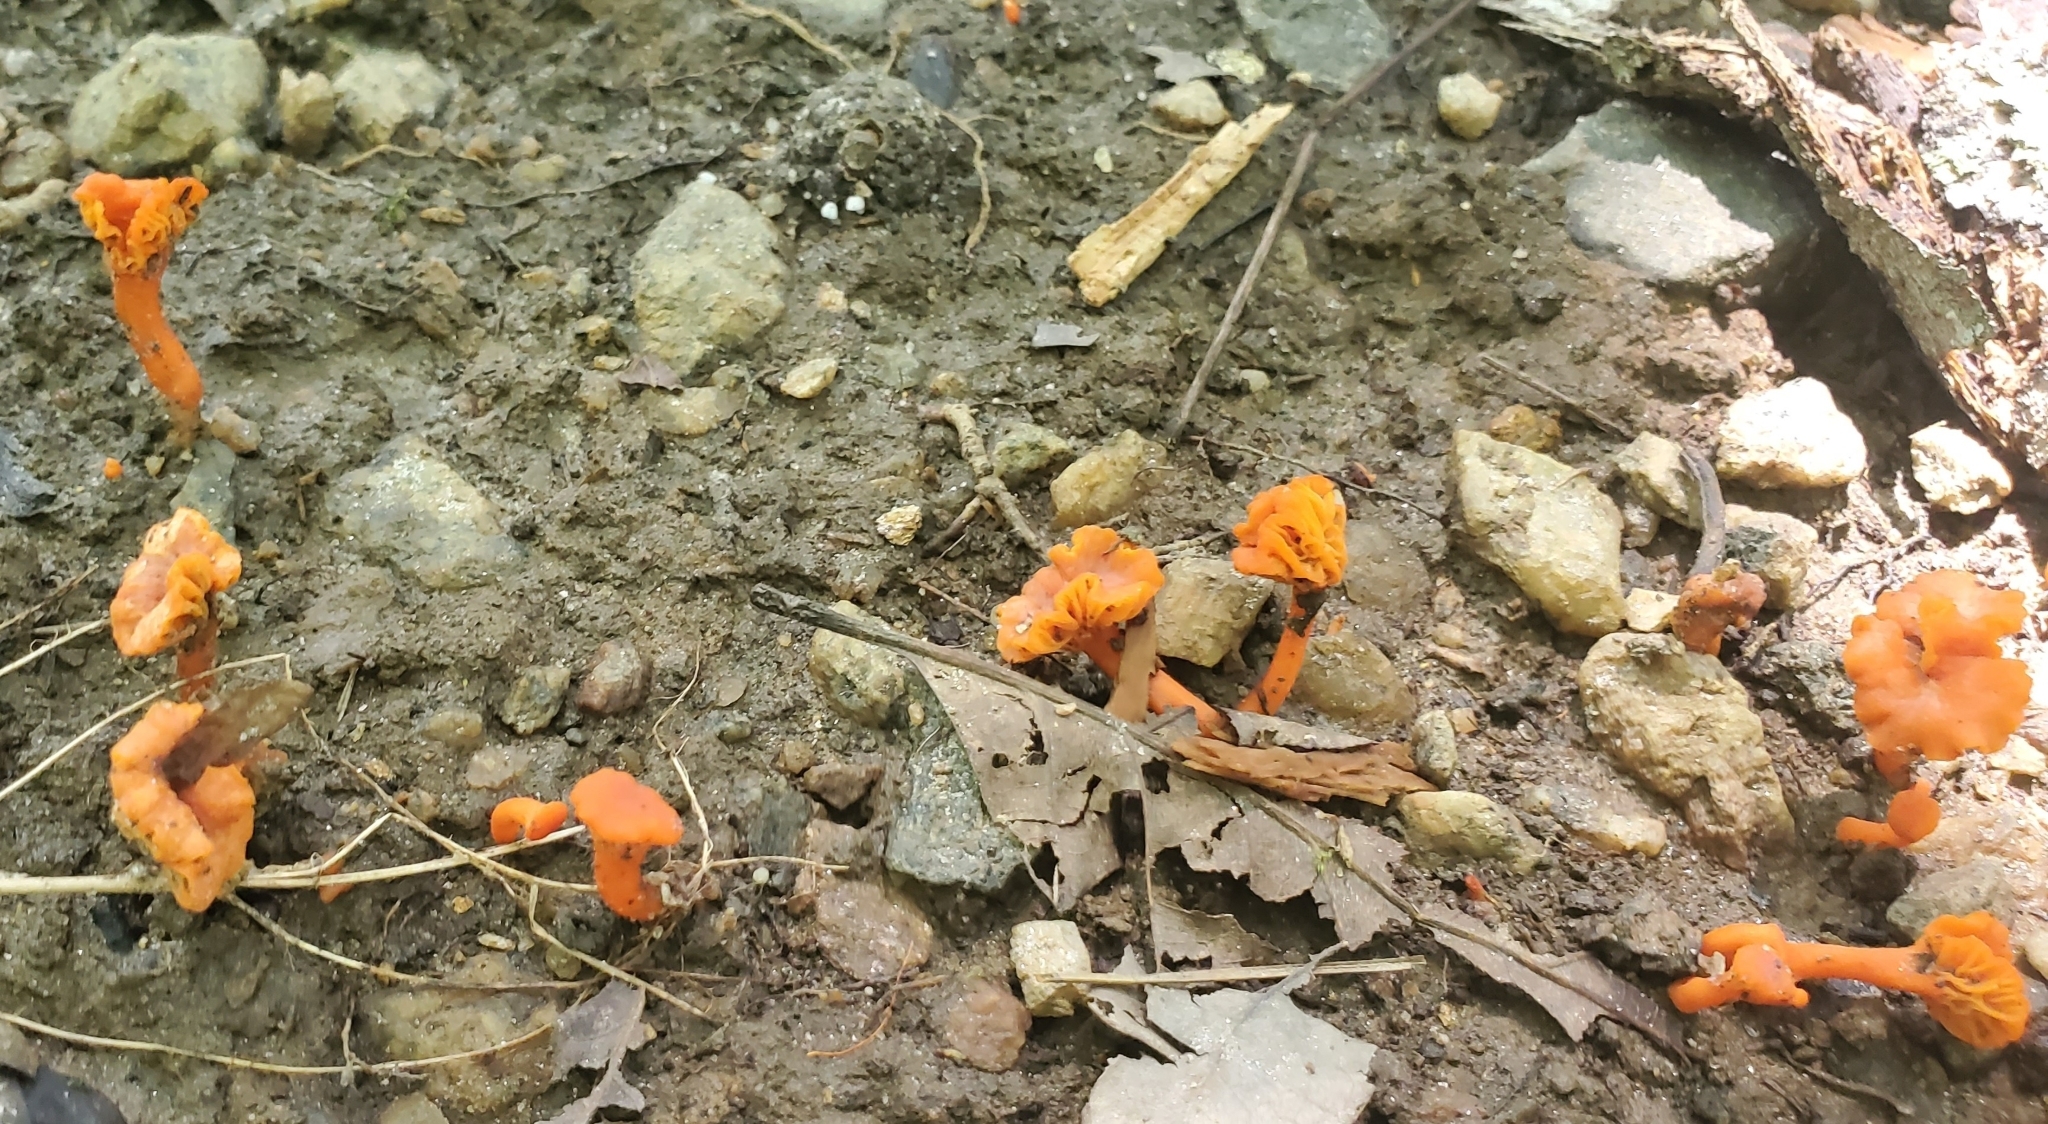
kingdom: Fungi
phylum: Basidiomycota
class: Agaricomycetes
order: Cantharellales
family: Hydnaceae
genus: Cantharellus
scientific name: Cantharellus cinnabarinus
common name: Cinnabar chanterelle
